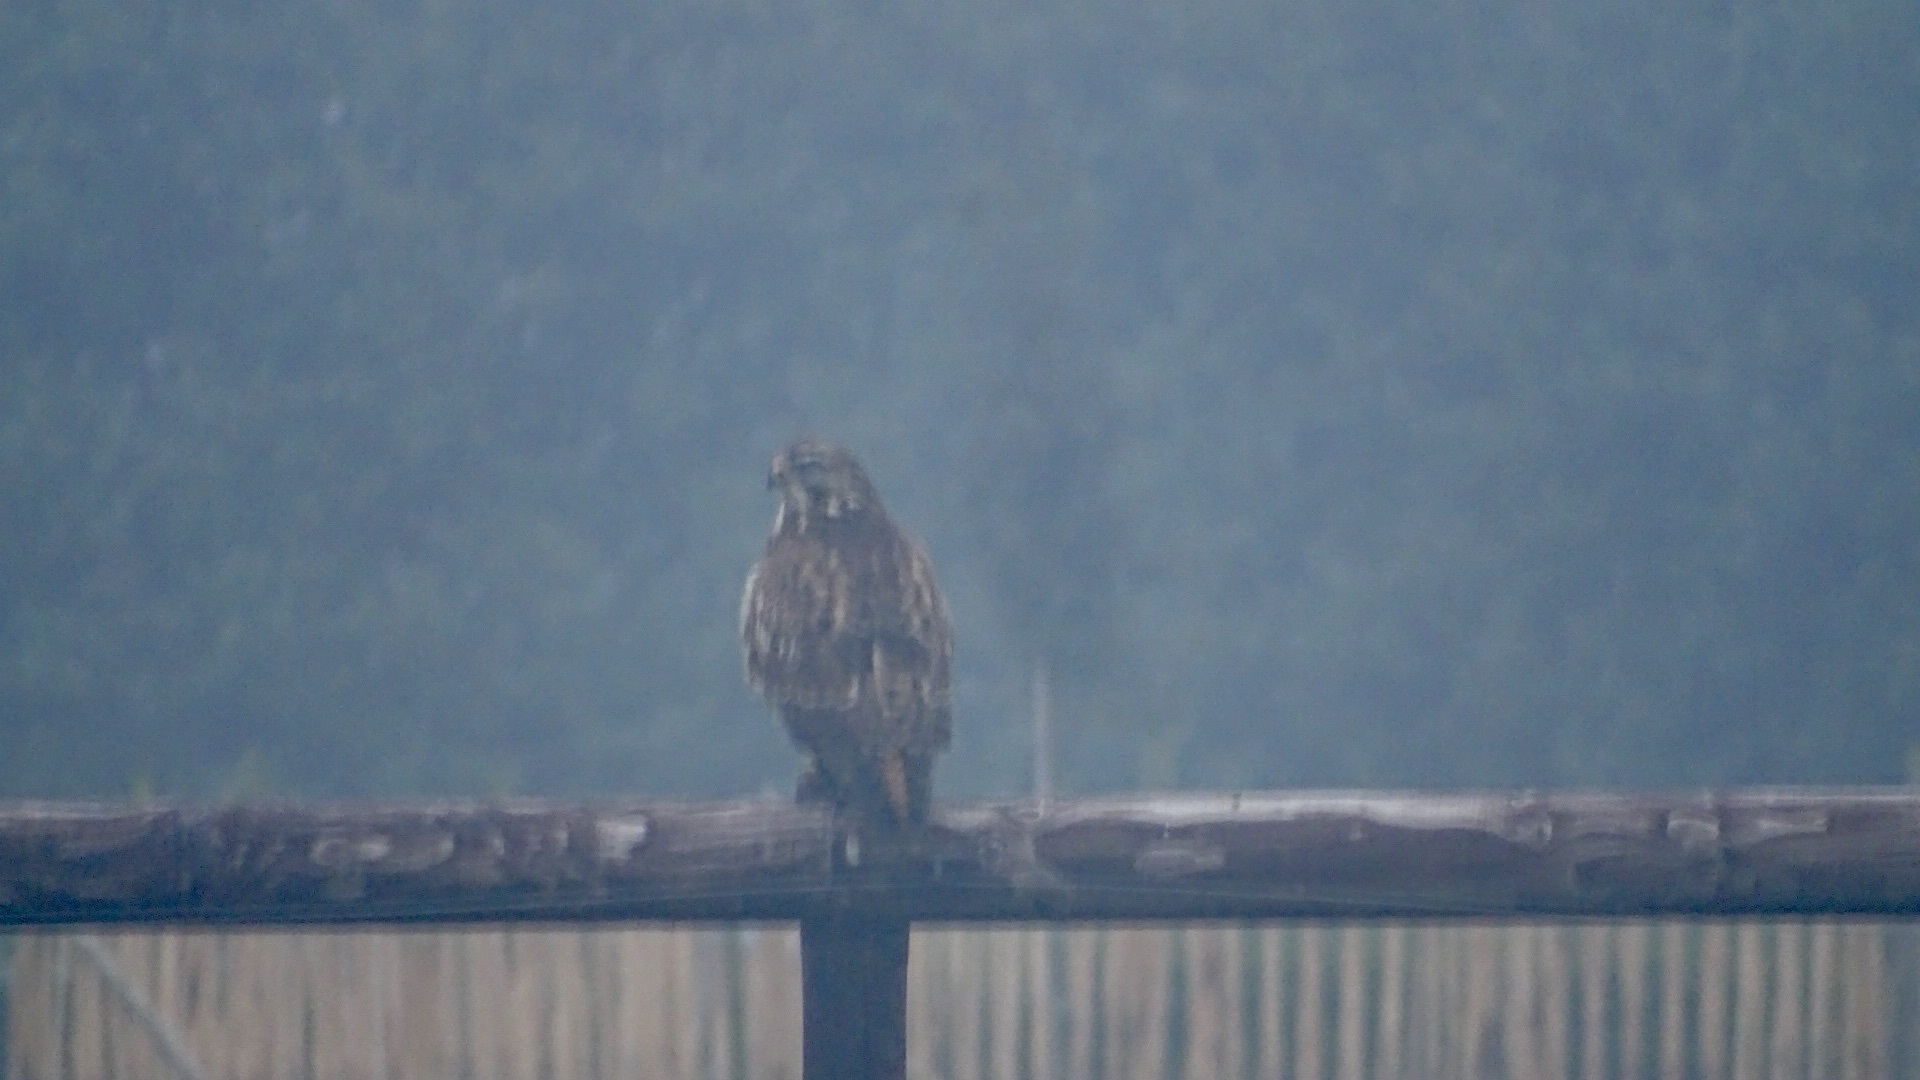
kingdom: Animalia
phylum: Chordata
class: Aves
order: Accipitriformes
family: Accipitridae
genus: Buteo
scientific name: Buteo buteo
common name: Common buzzard
